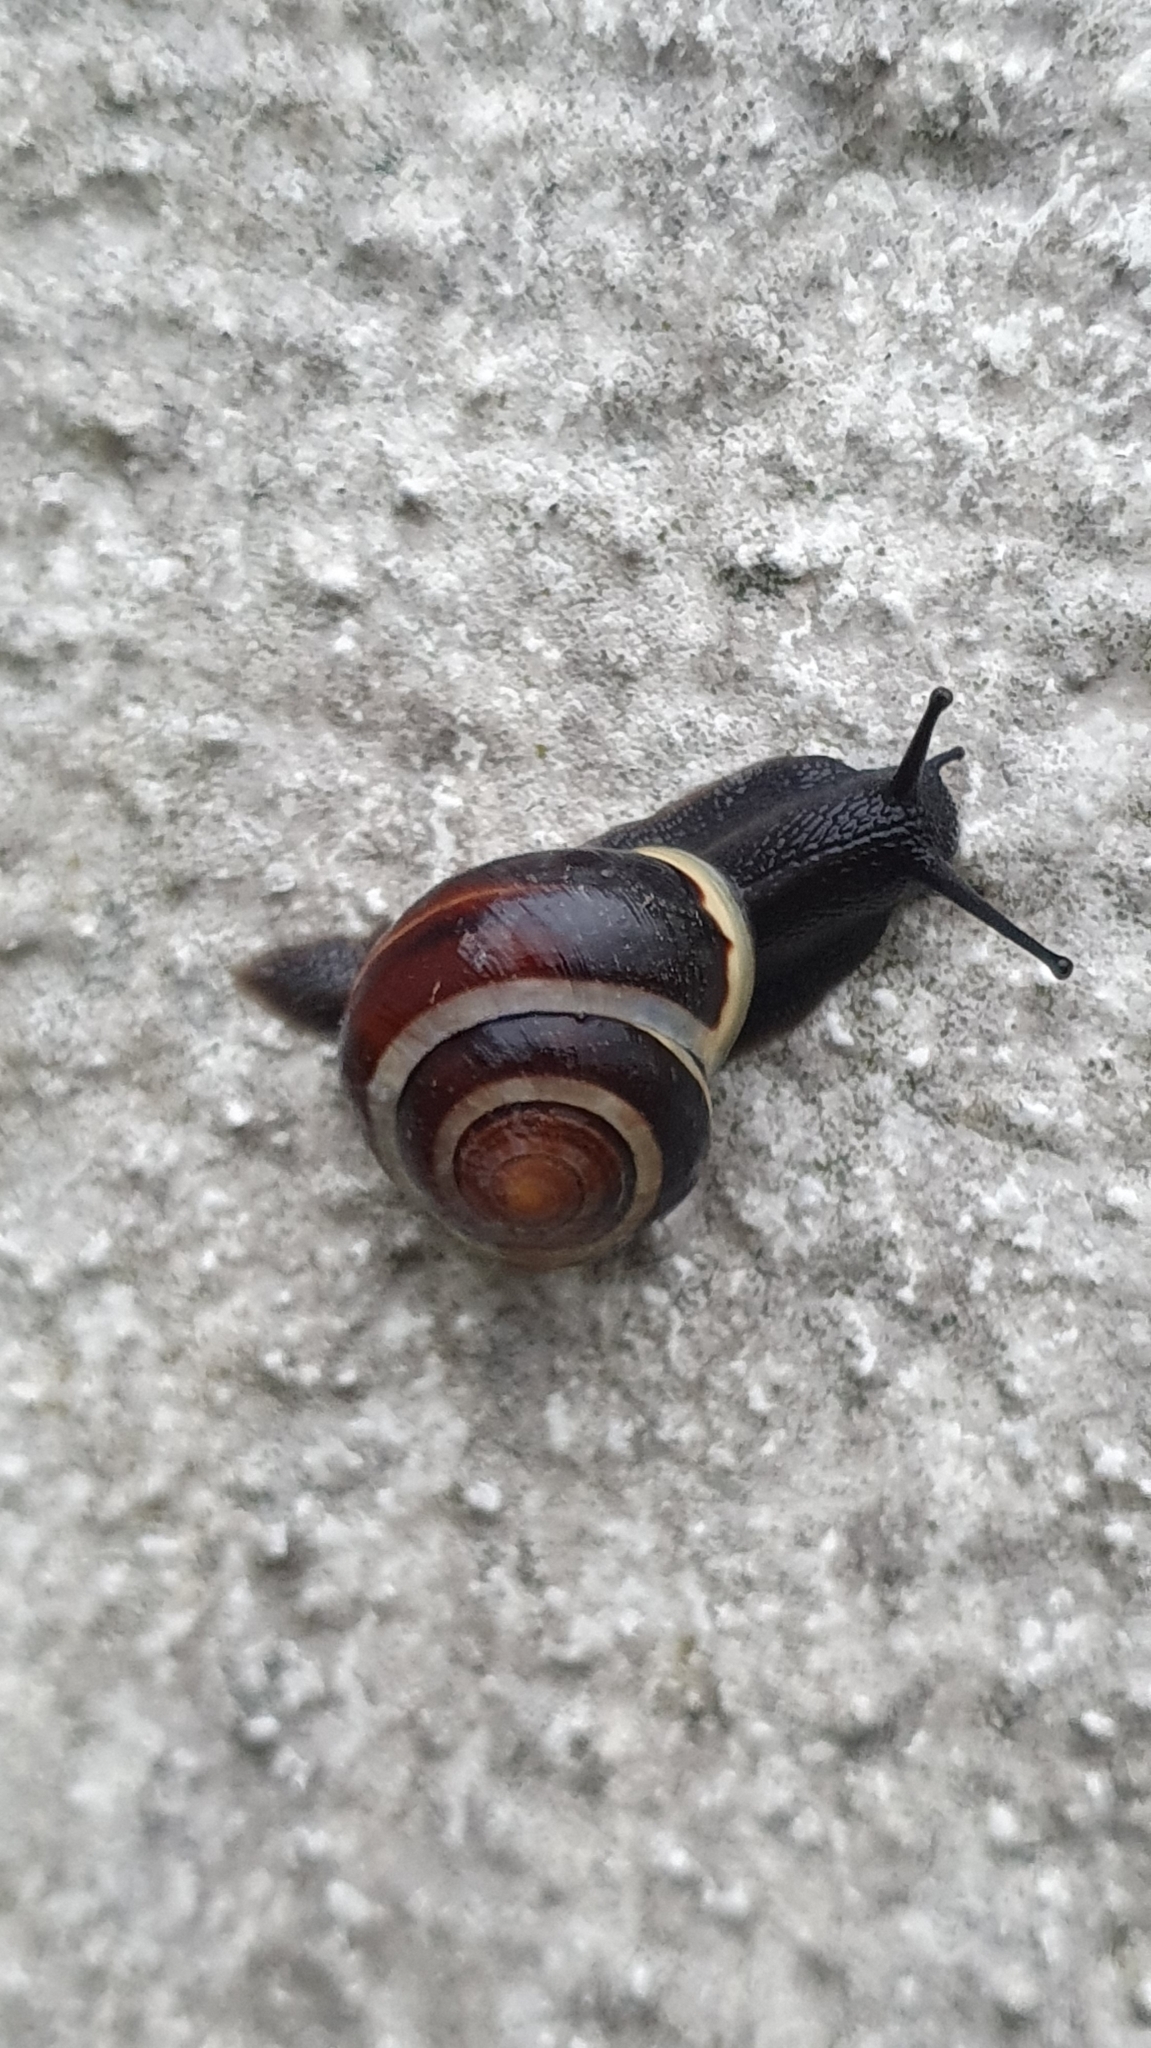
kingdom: Animalia
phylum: Mollusca
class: Gastropoda
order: Stylommatophora
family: Helicidae
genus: Cepaea
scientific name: Cepaea hortensis
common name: White-lip gardensnail
